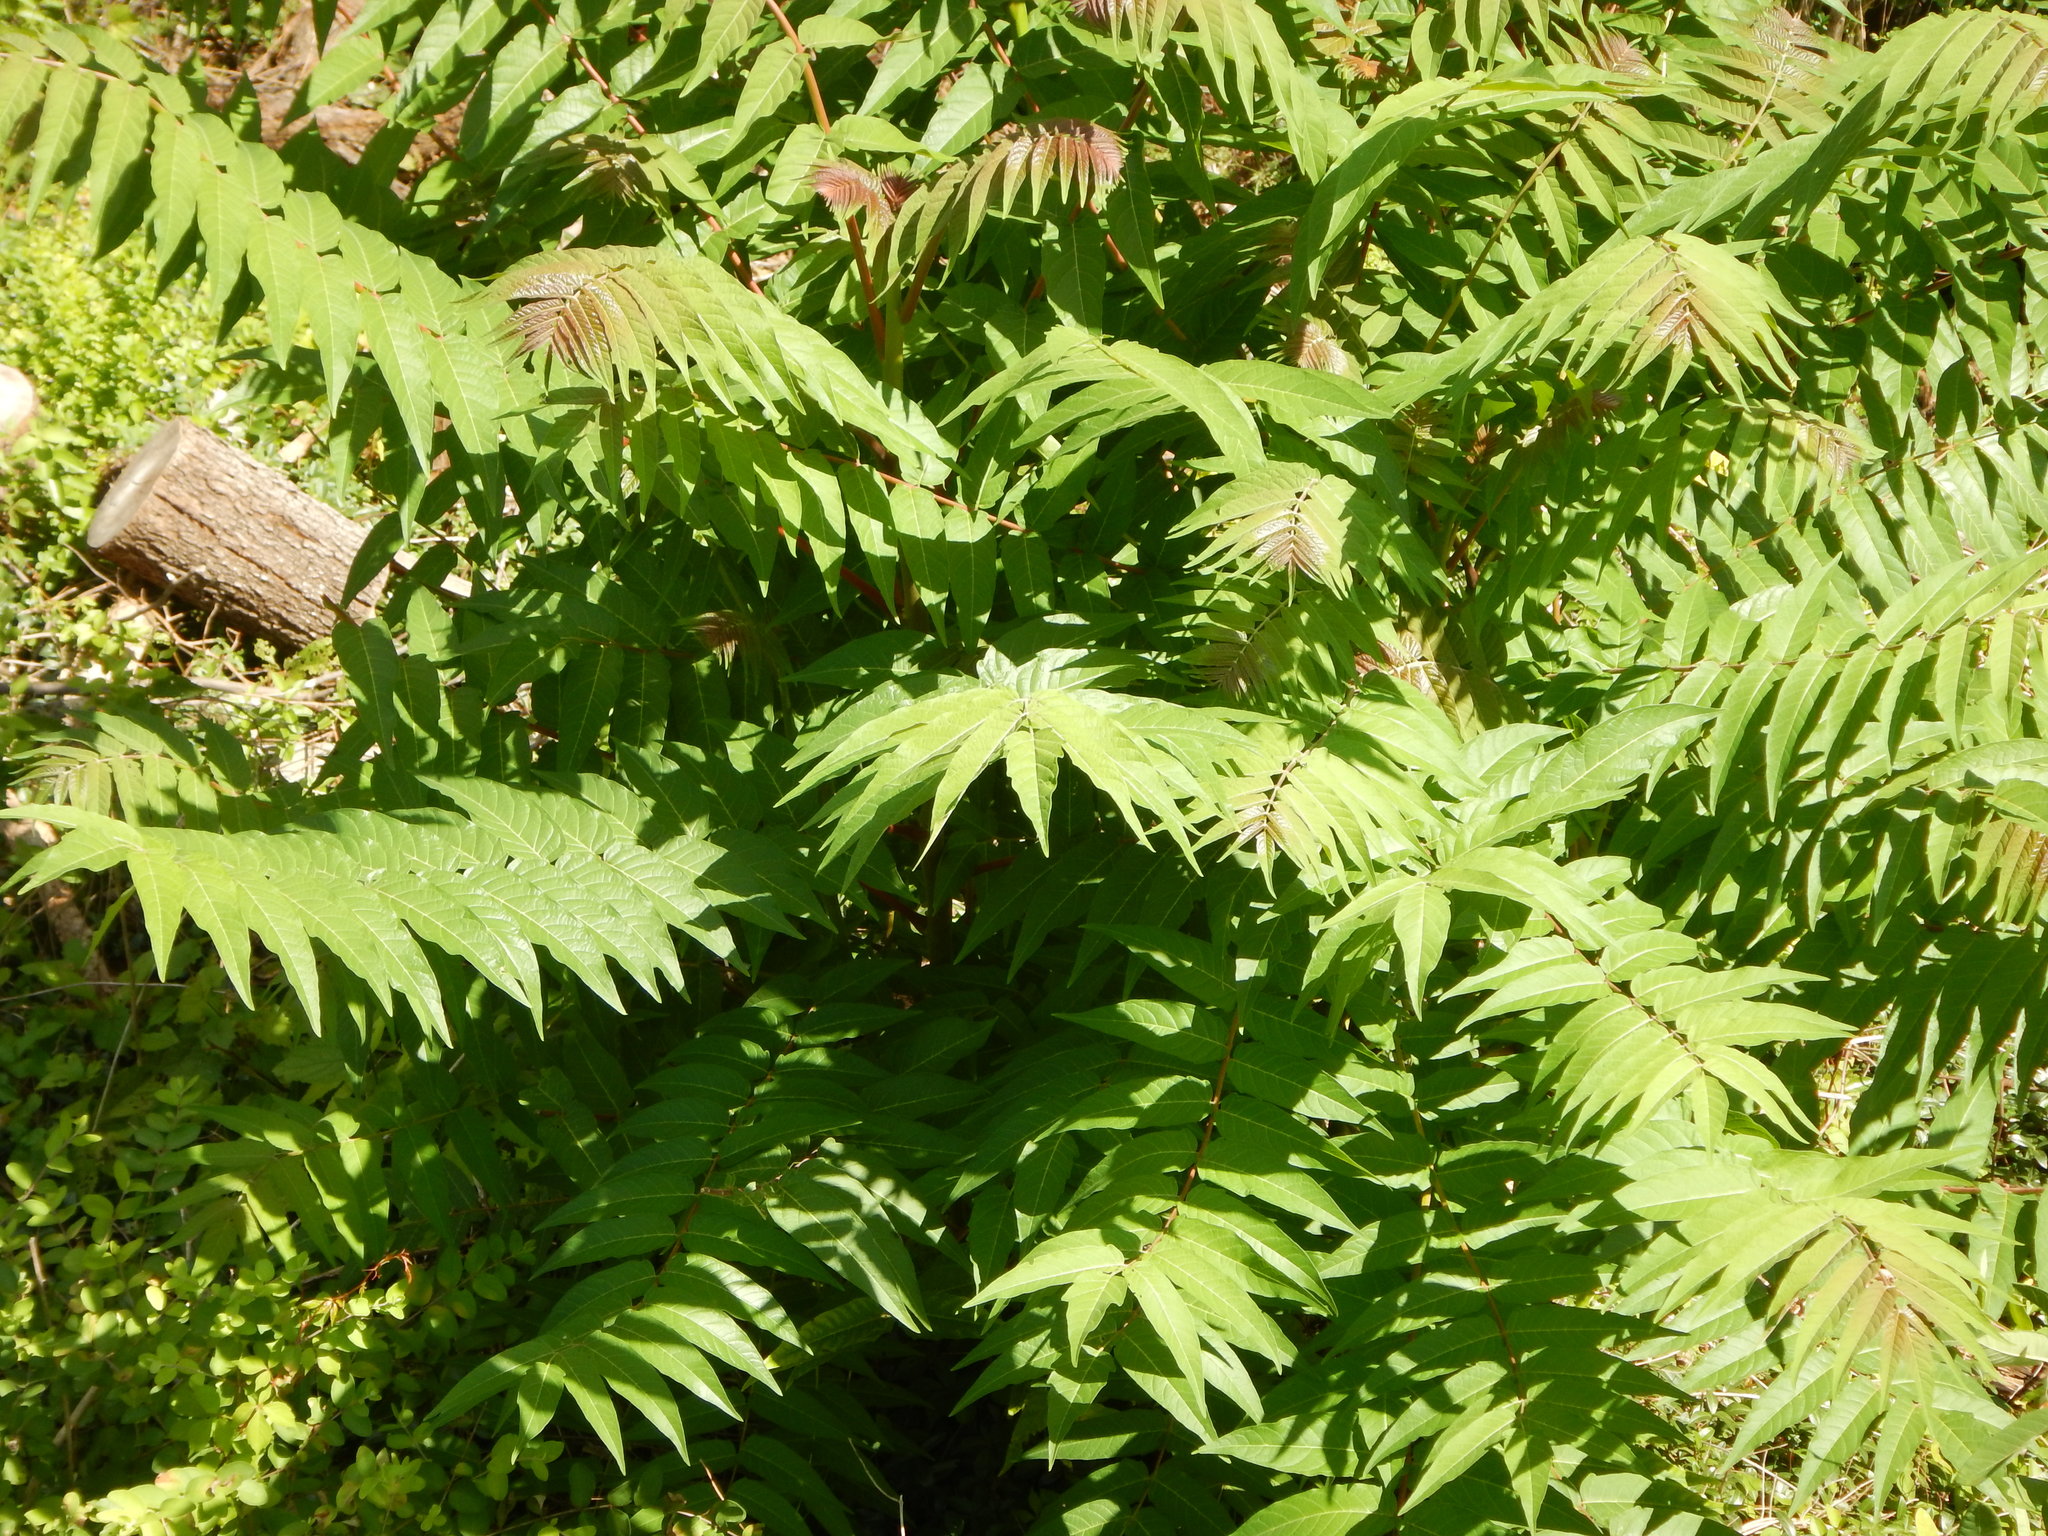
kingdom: Plantae
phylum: Tracheophyta
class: Magnoliopsida
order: Sapindales
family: Simaroubaceae
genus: Ailanthus
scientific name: Ailanthus altissima
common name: Tree-of-heaven
